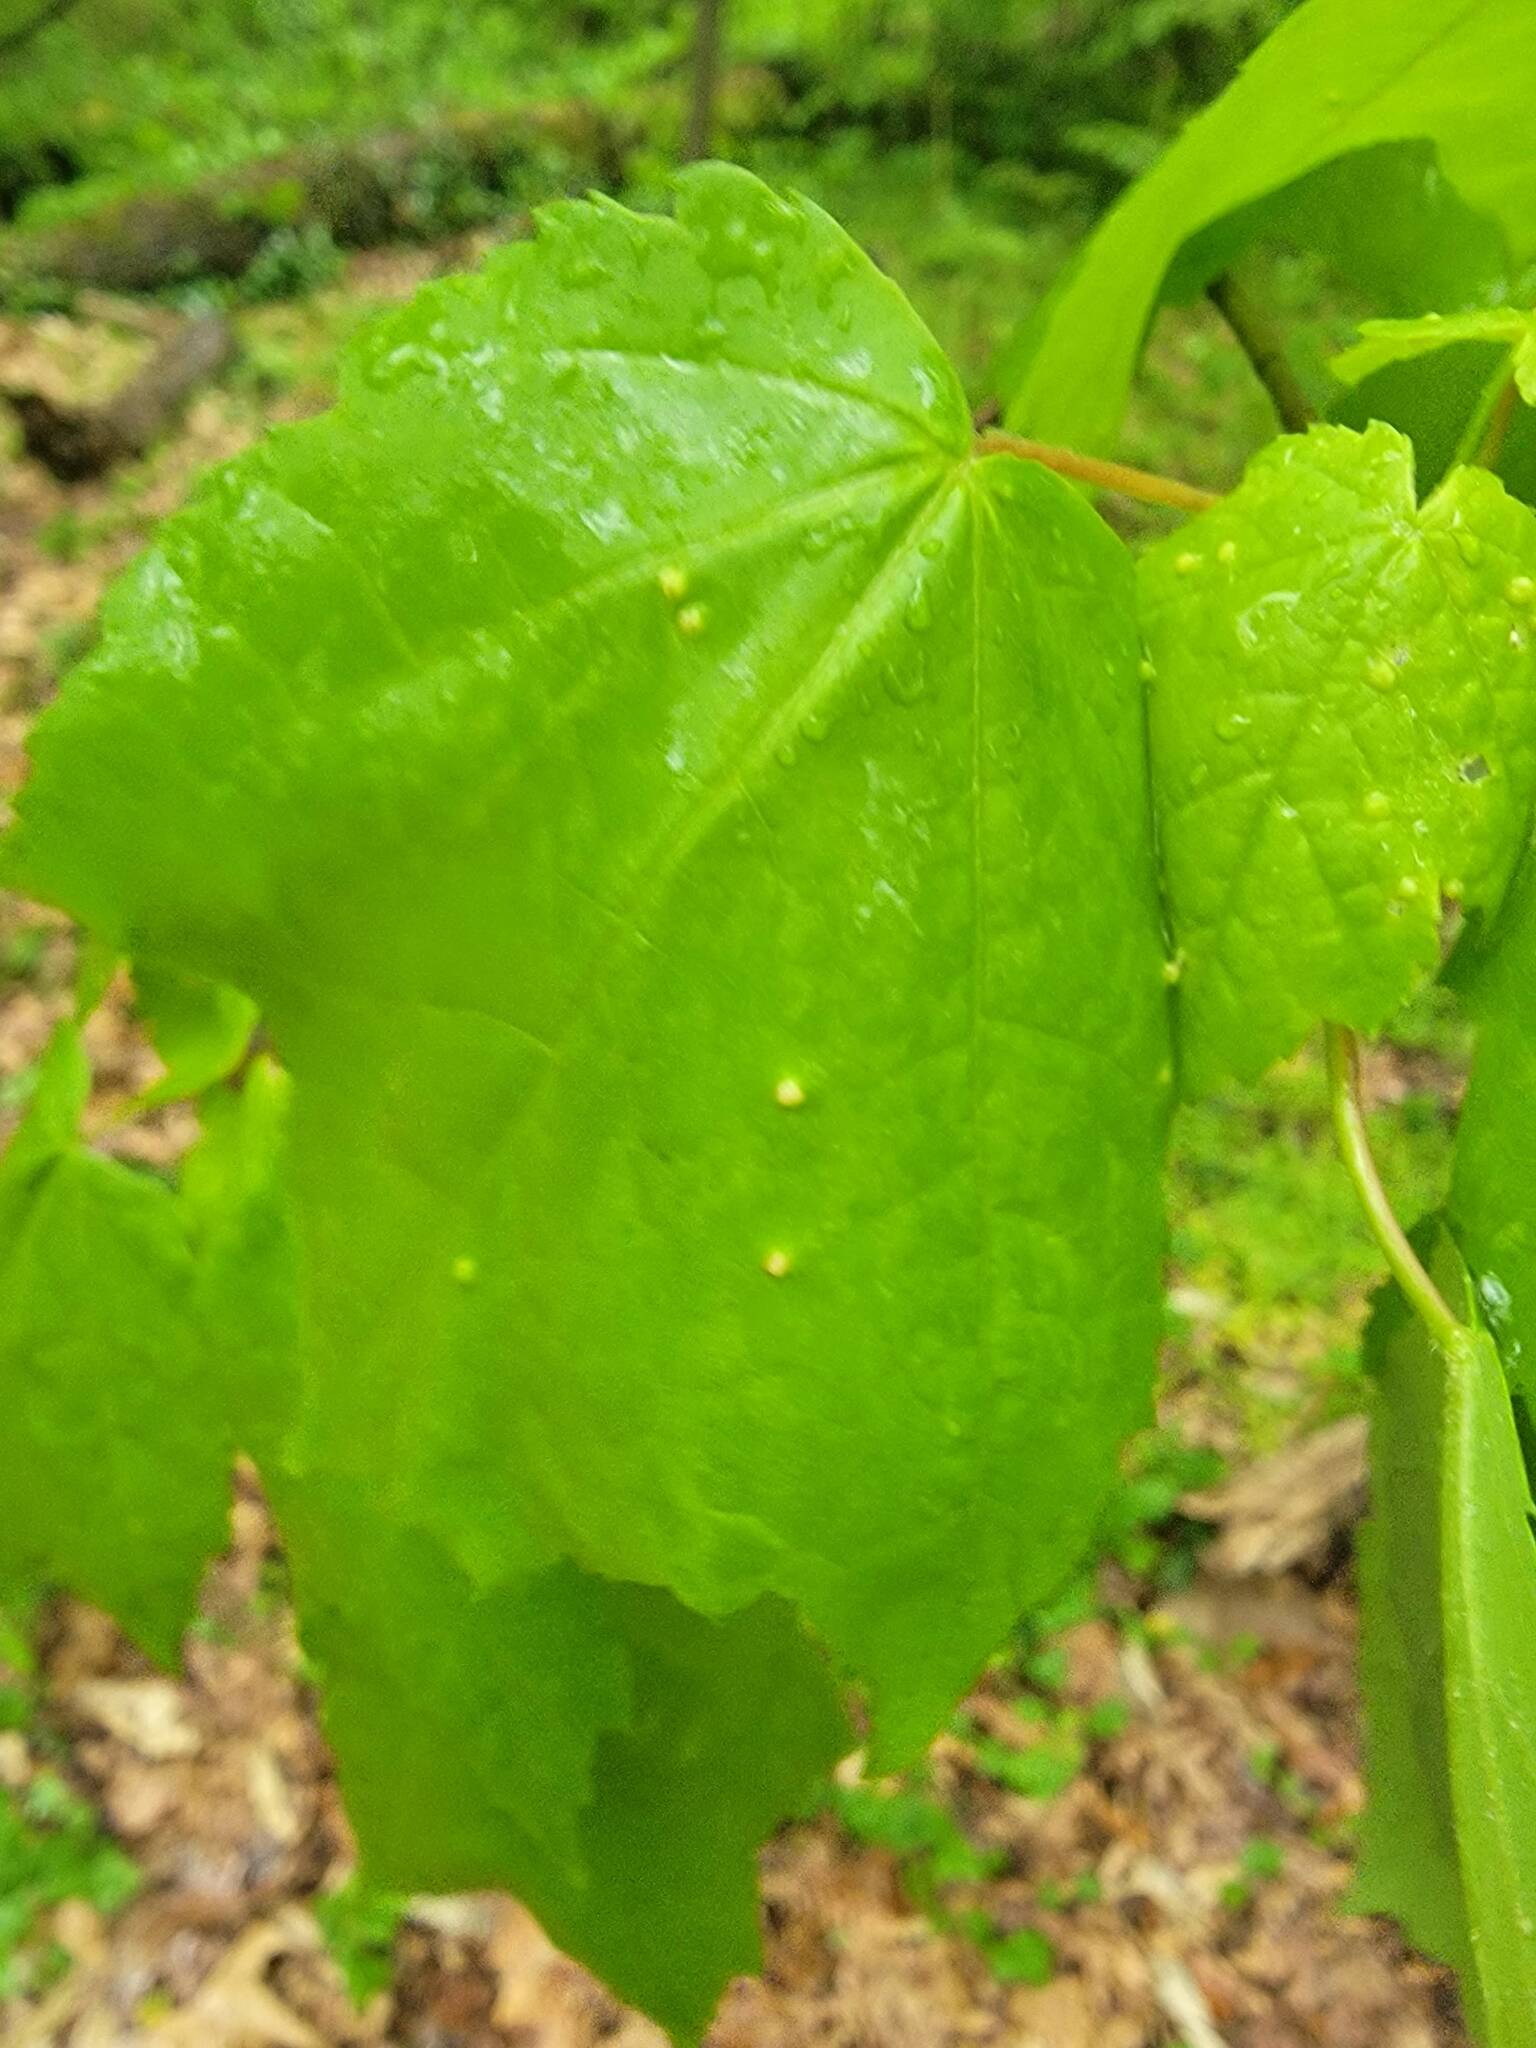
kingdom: Animalia
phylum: Arthropoda
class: Arachnida
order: Trombidiformes
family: Eriophyidae
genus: Vasates
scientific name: Vasates quadripedes
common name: Maple bladder gall mite
